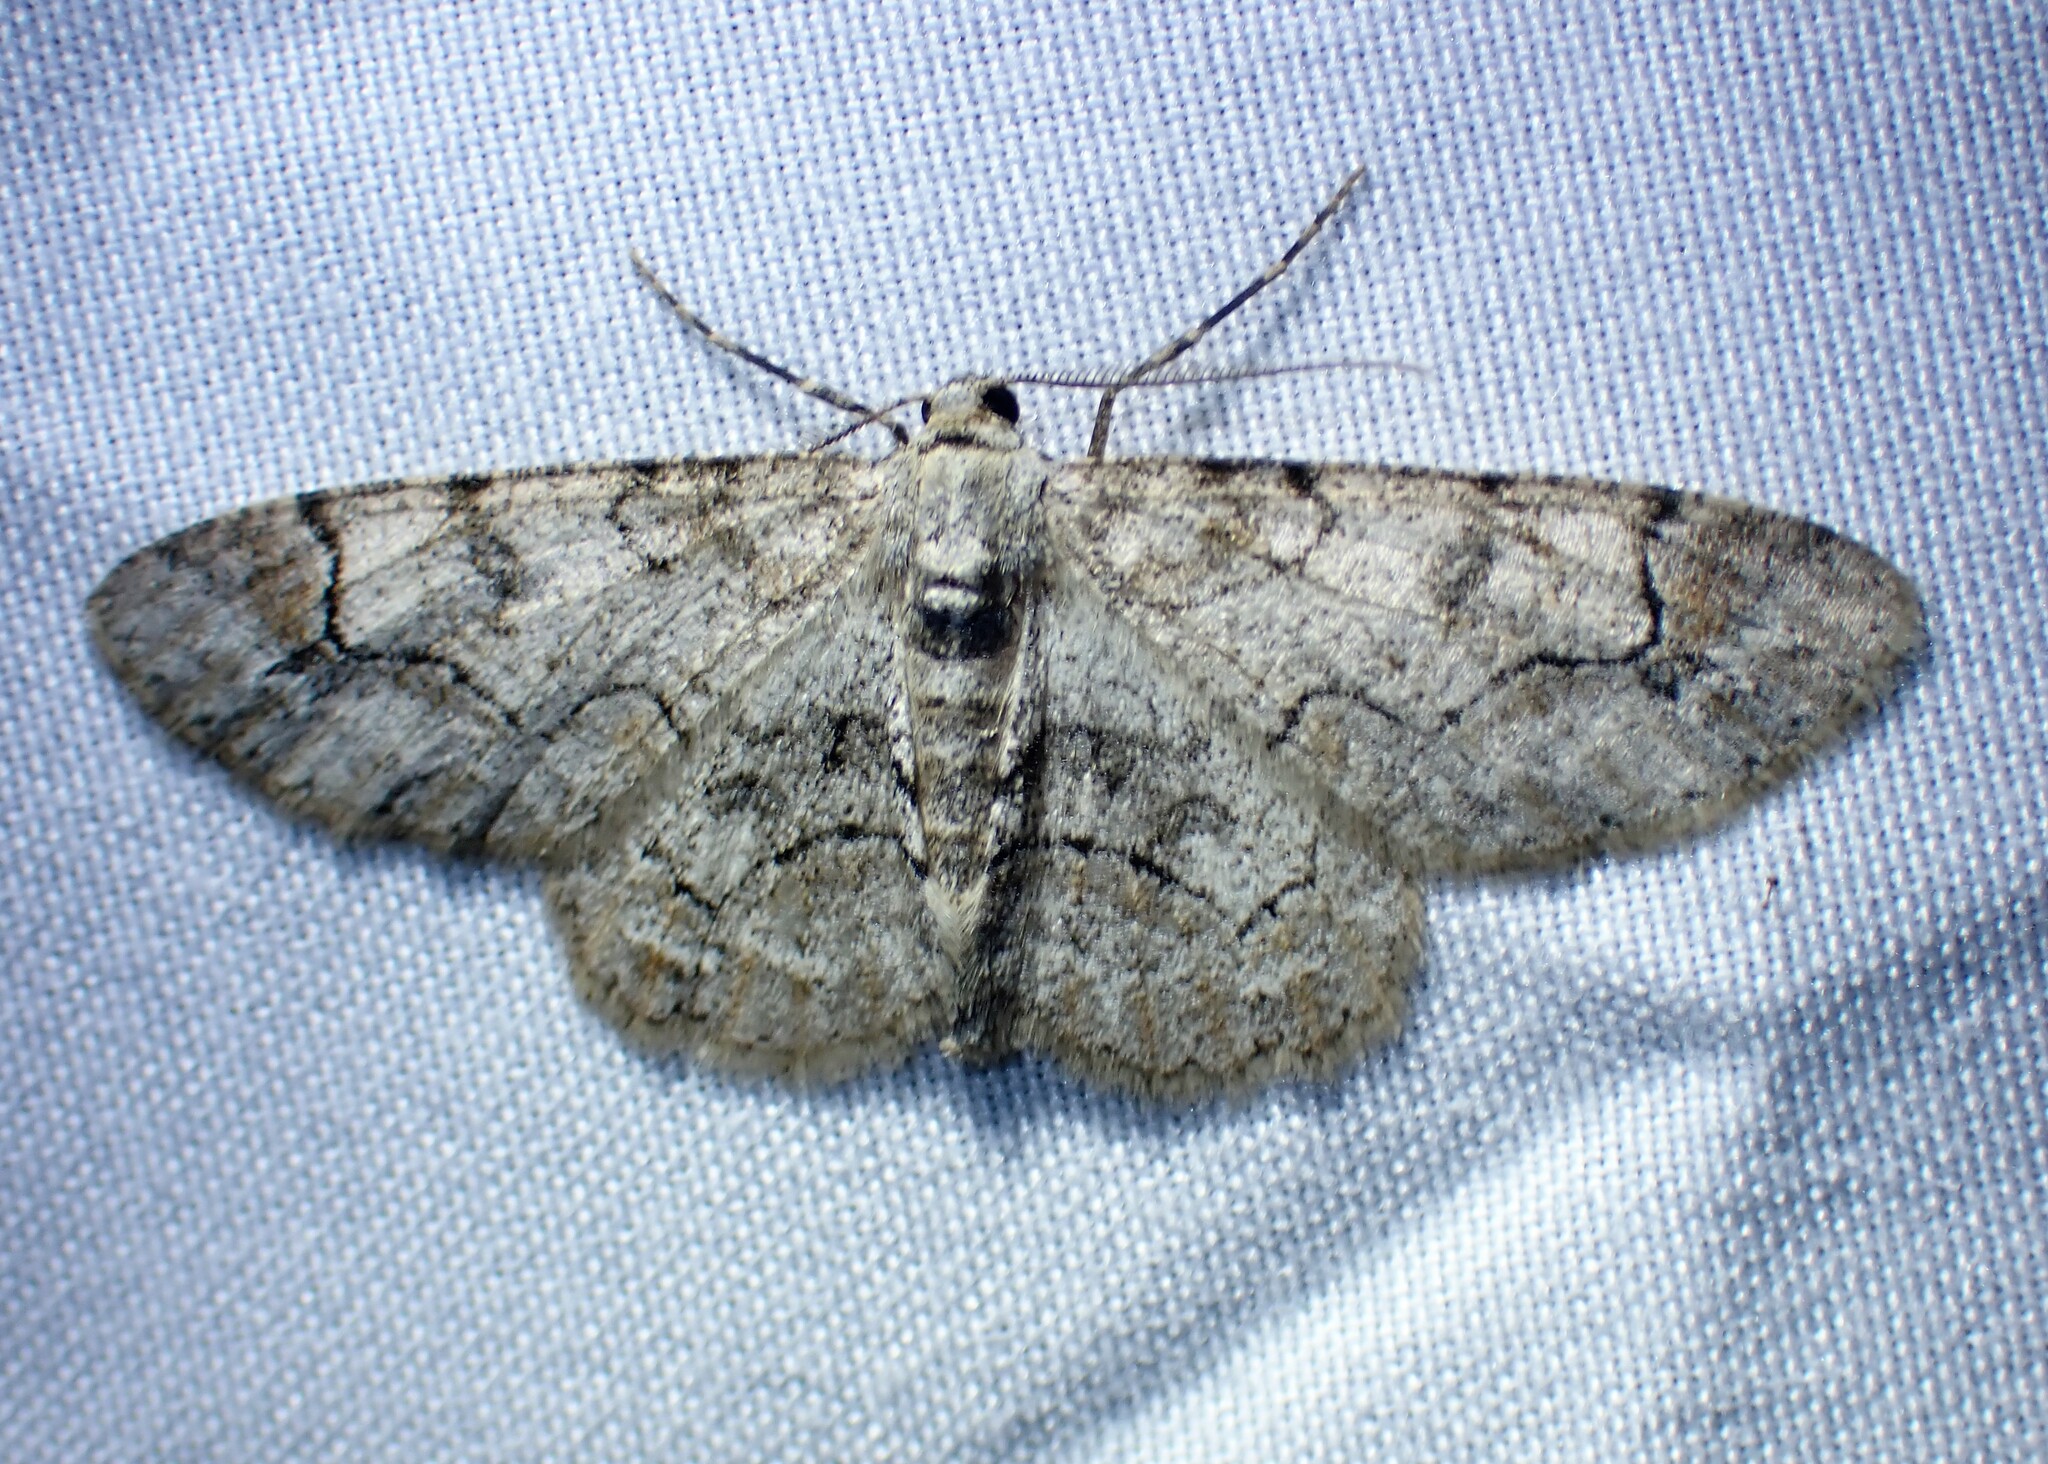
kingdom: Animalia
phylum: Arthropoda
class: Insecta
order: Lepidoptera
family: Geometridae
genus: Iridopsis
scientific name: Iridopsis larvaria
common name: Bent-line gray
